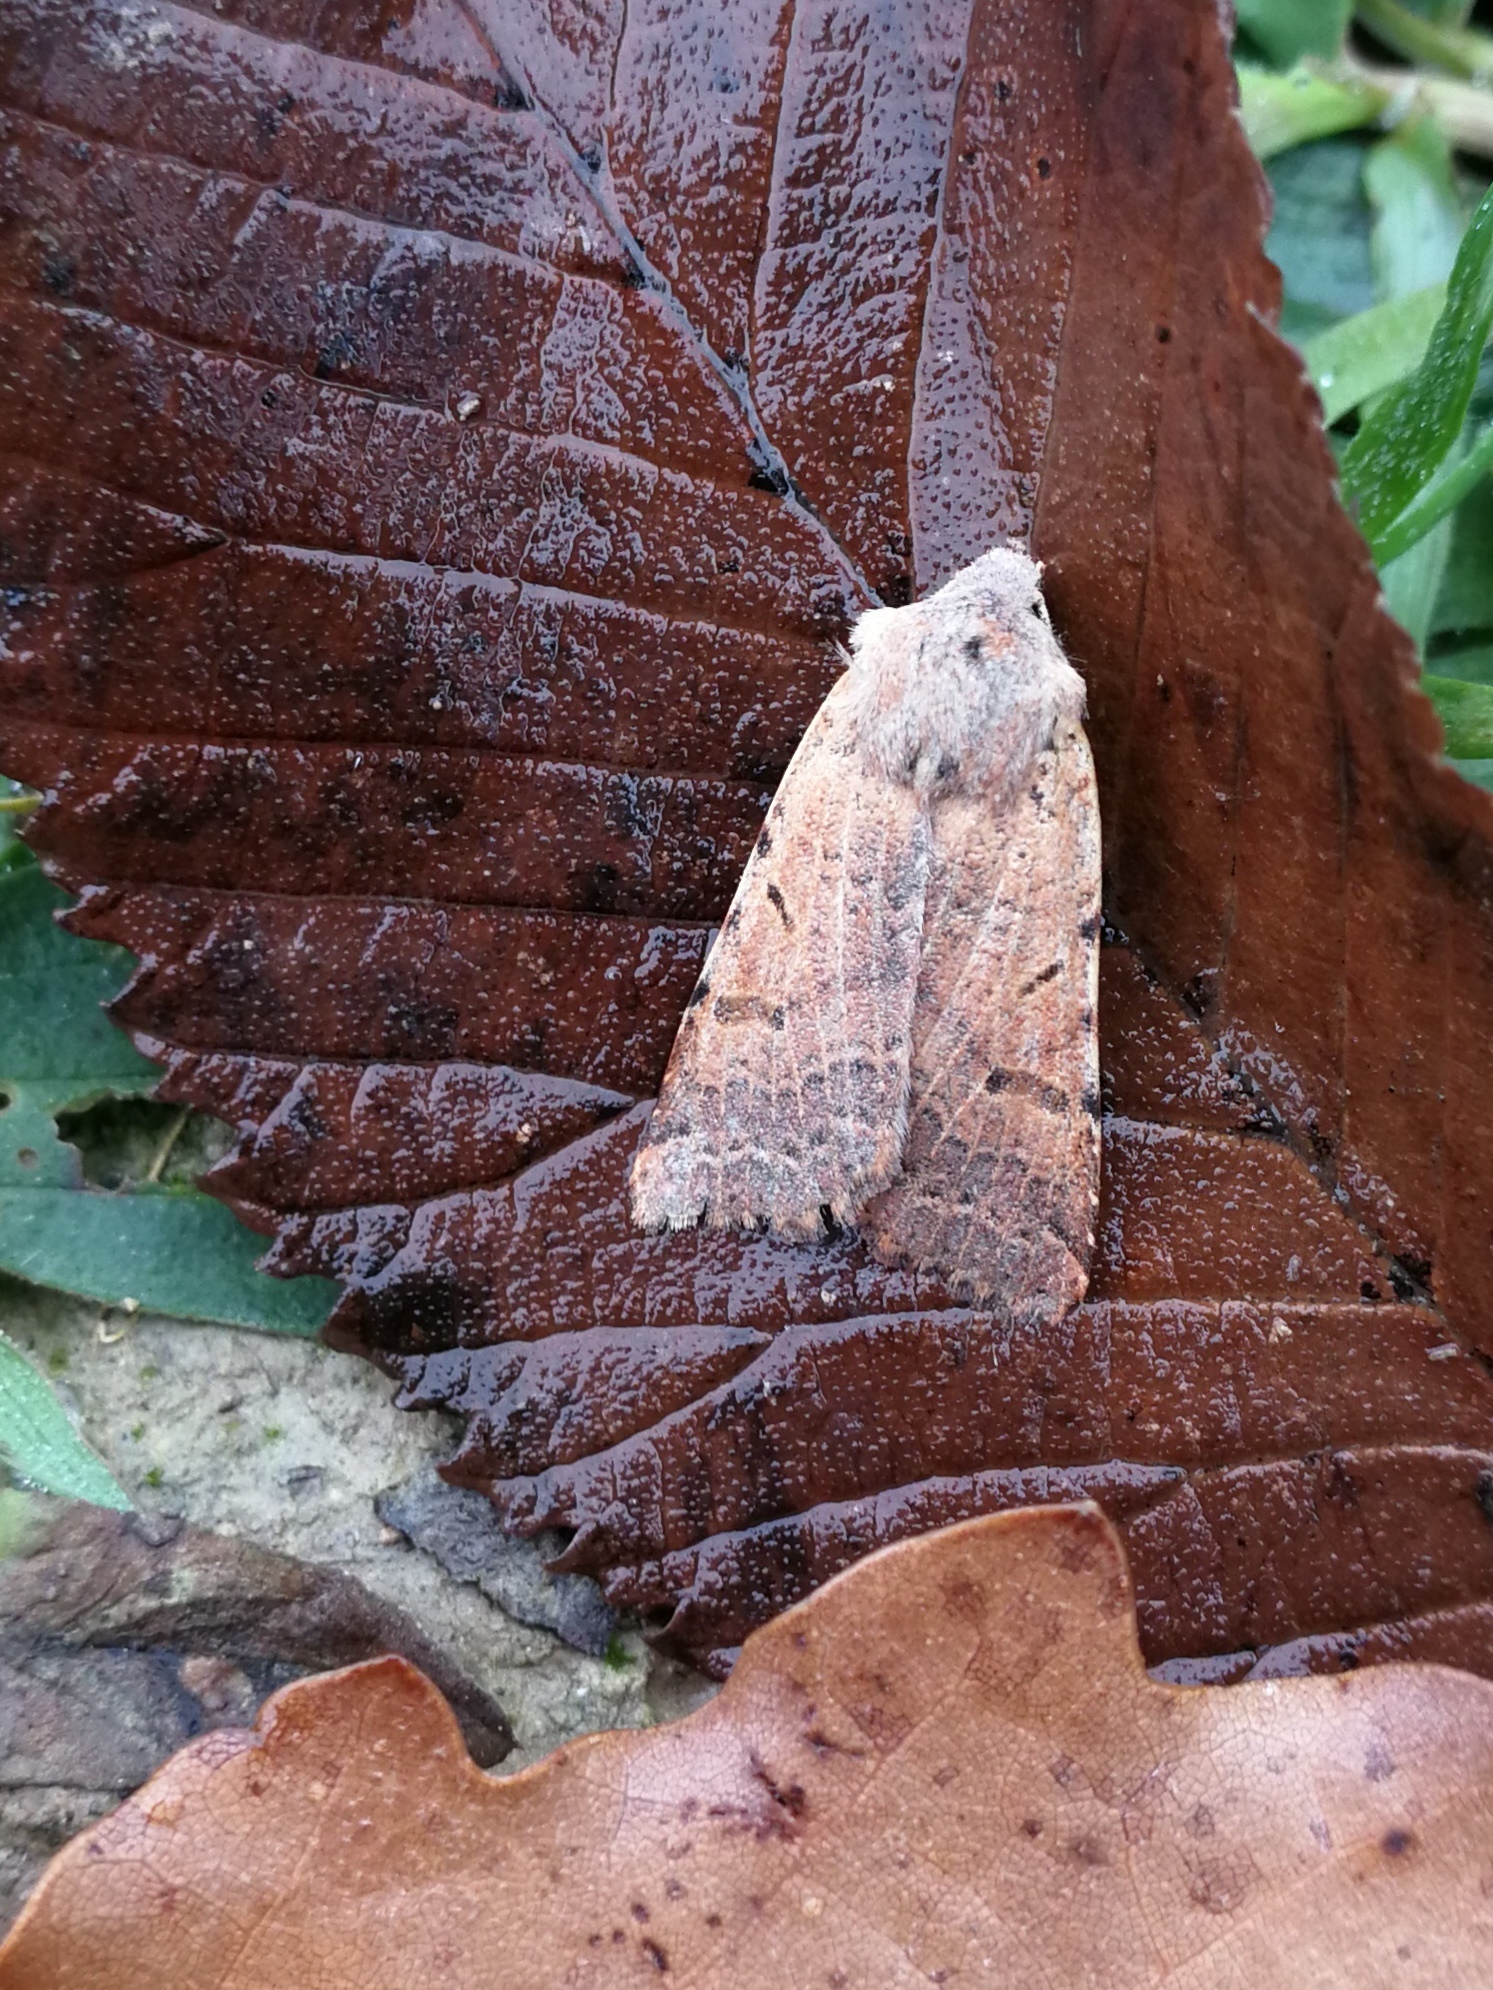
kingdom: Animalia
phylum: Arthropoda
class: Insecta
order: Lepidoptera
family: Noctuidae
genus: Agrochola
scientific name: Agrochola lychnidis
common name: Beaded chestnut
